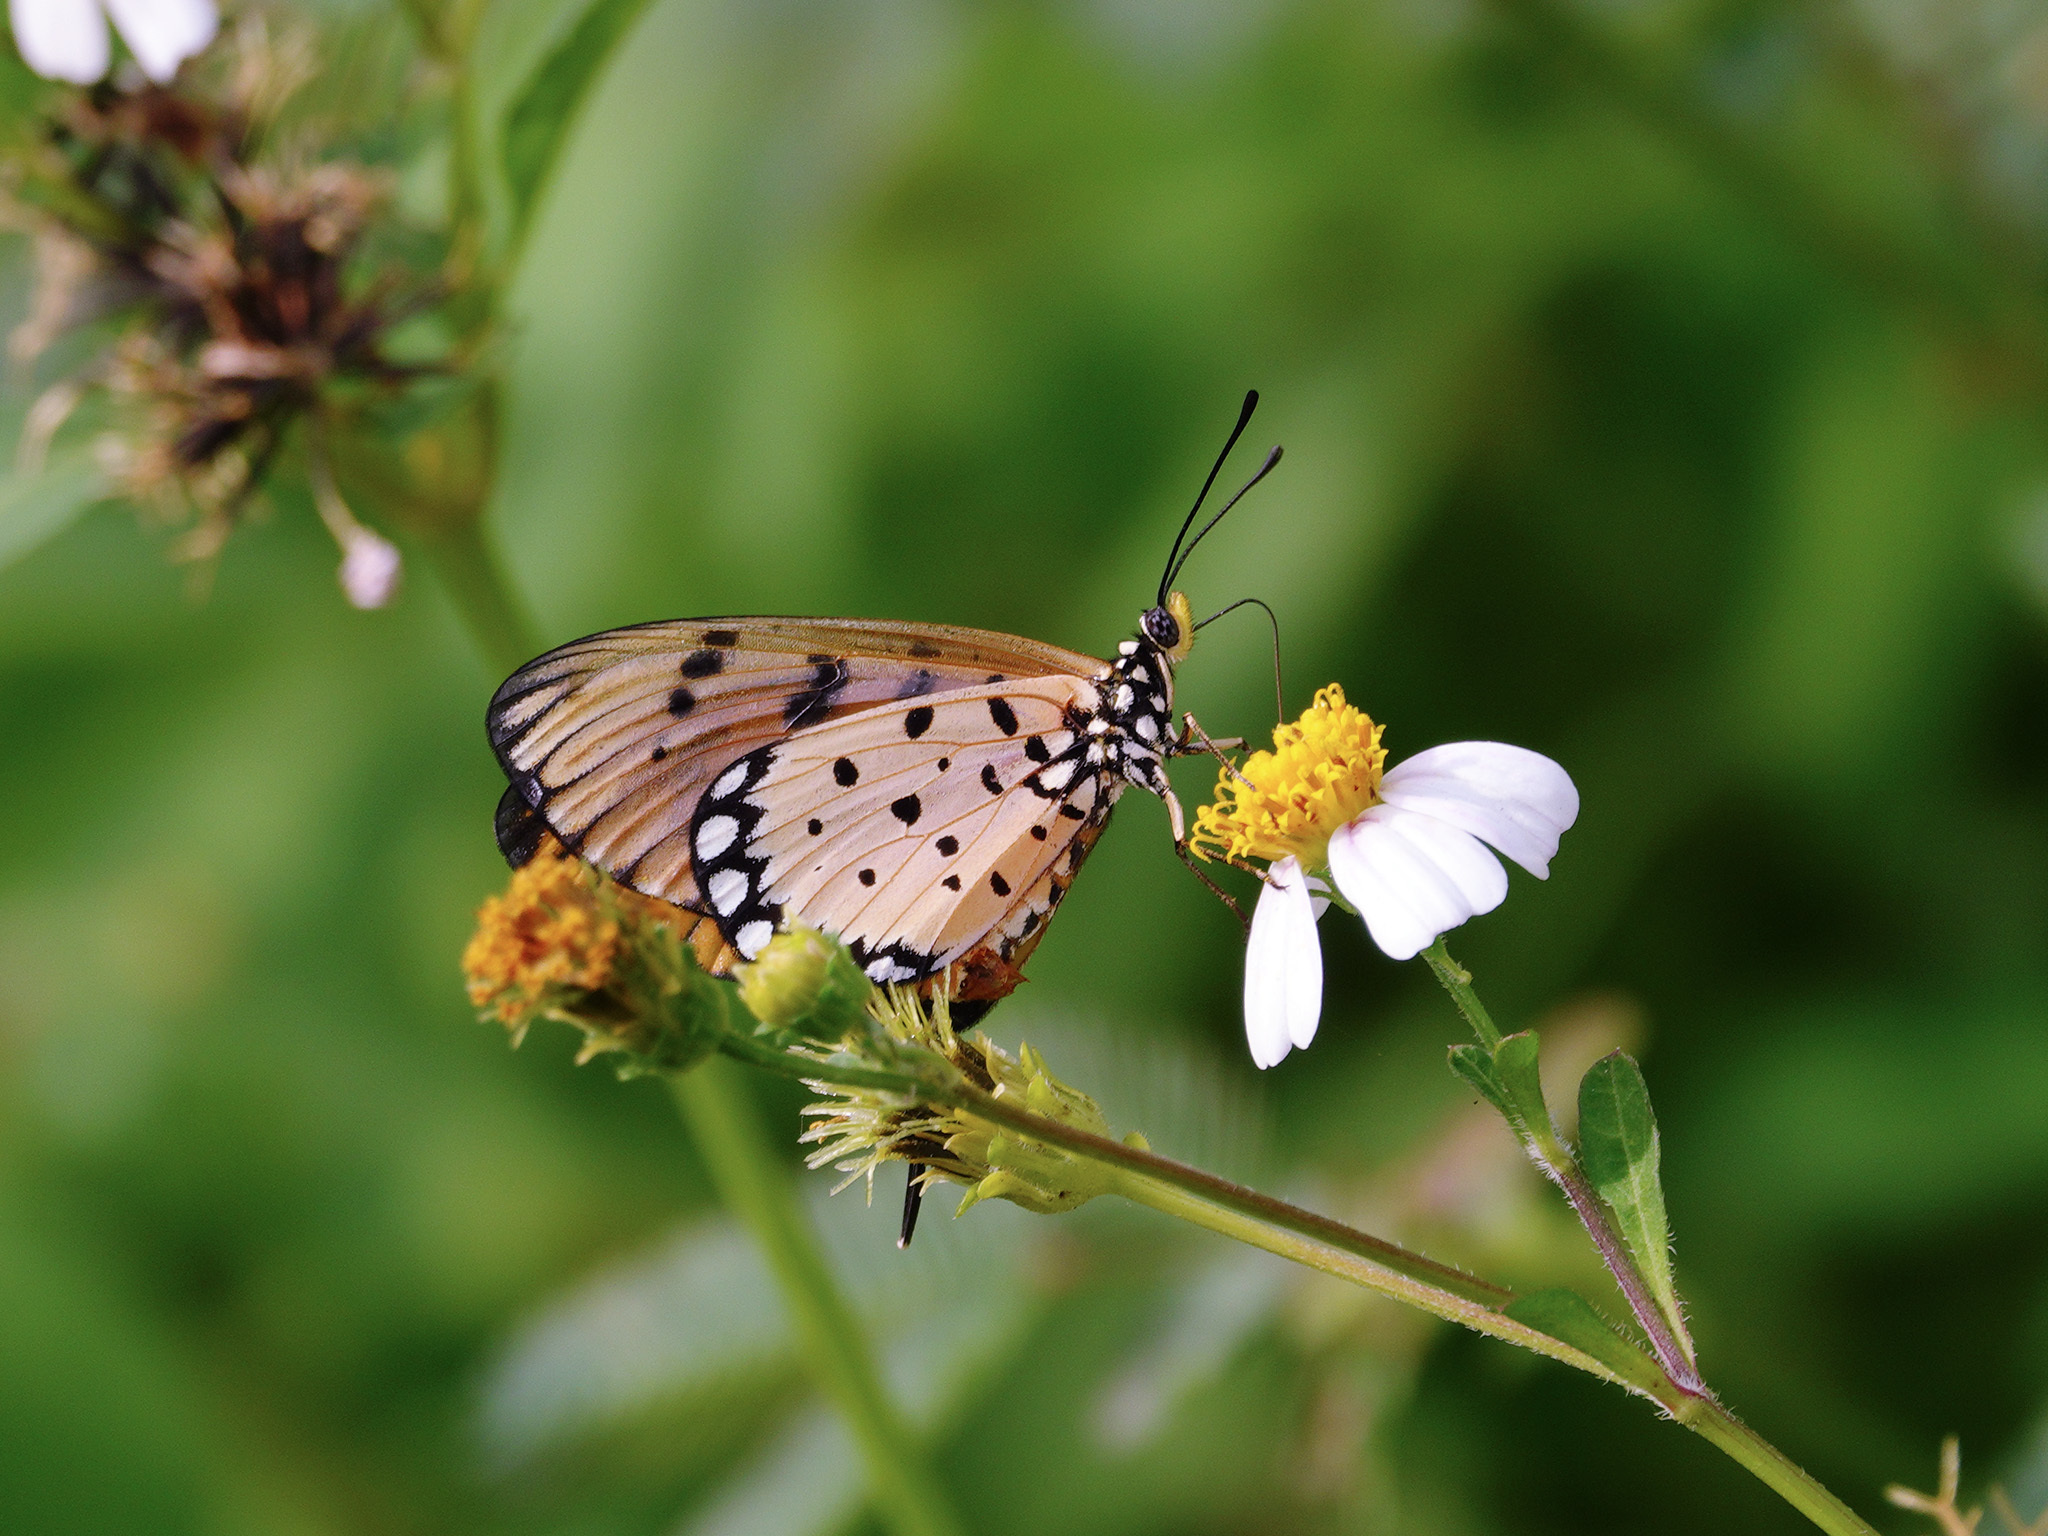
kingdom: Animalia
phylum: Arthropoda
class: Insecta
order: Lepidoptera
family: Nymphalidae
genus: Acraea
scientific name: Acraea terpsicore
